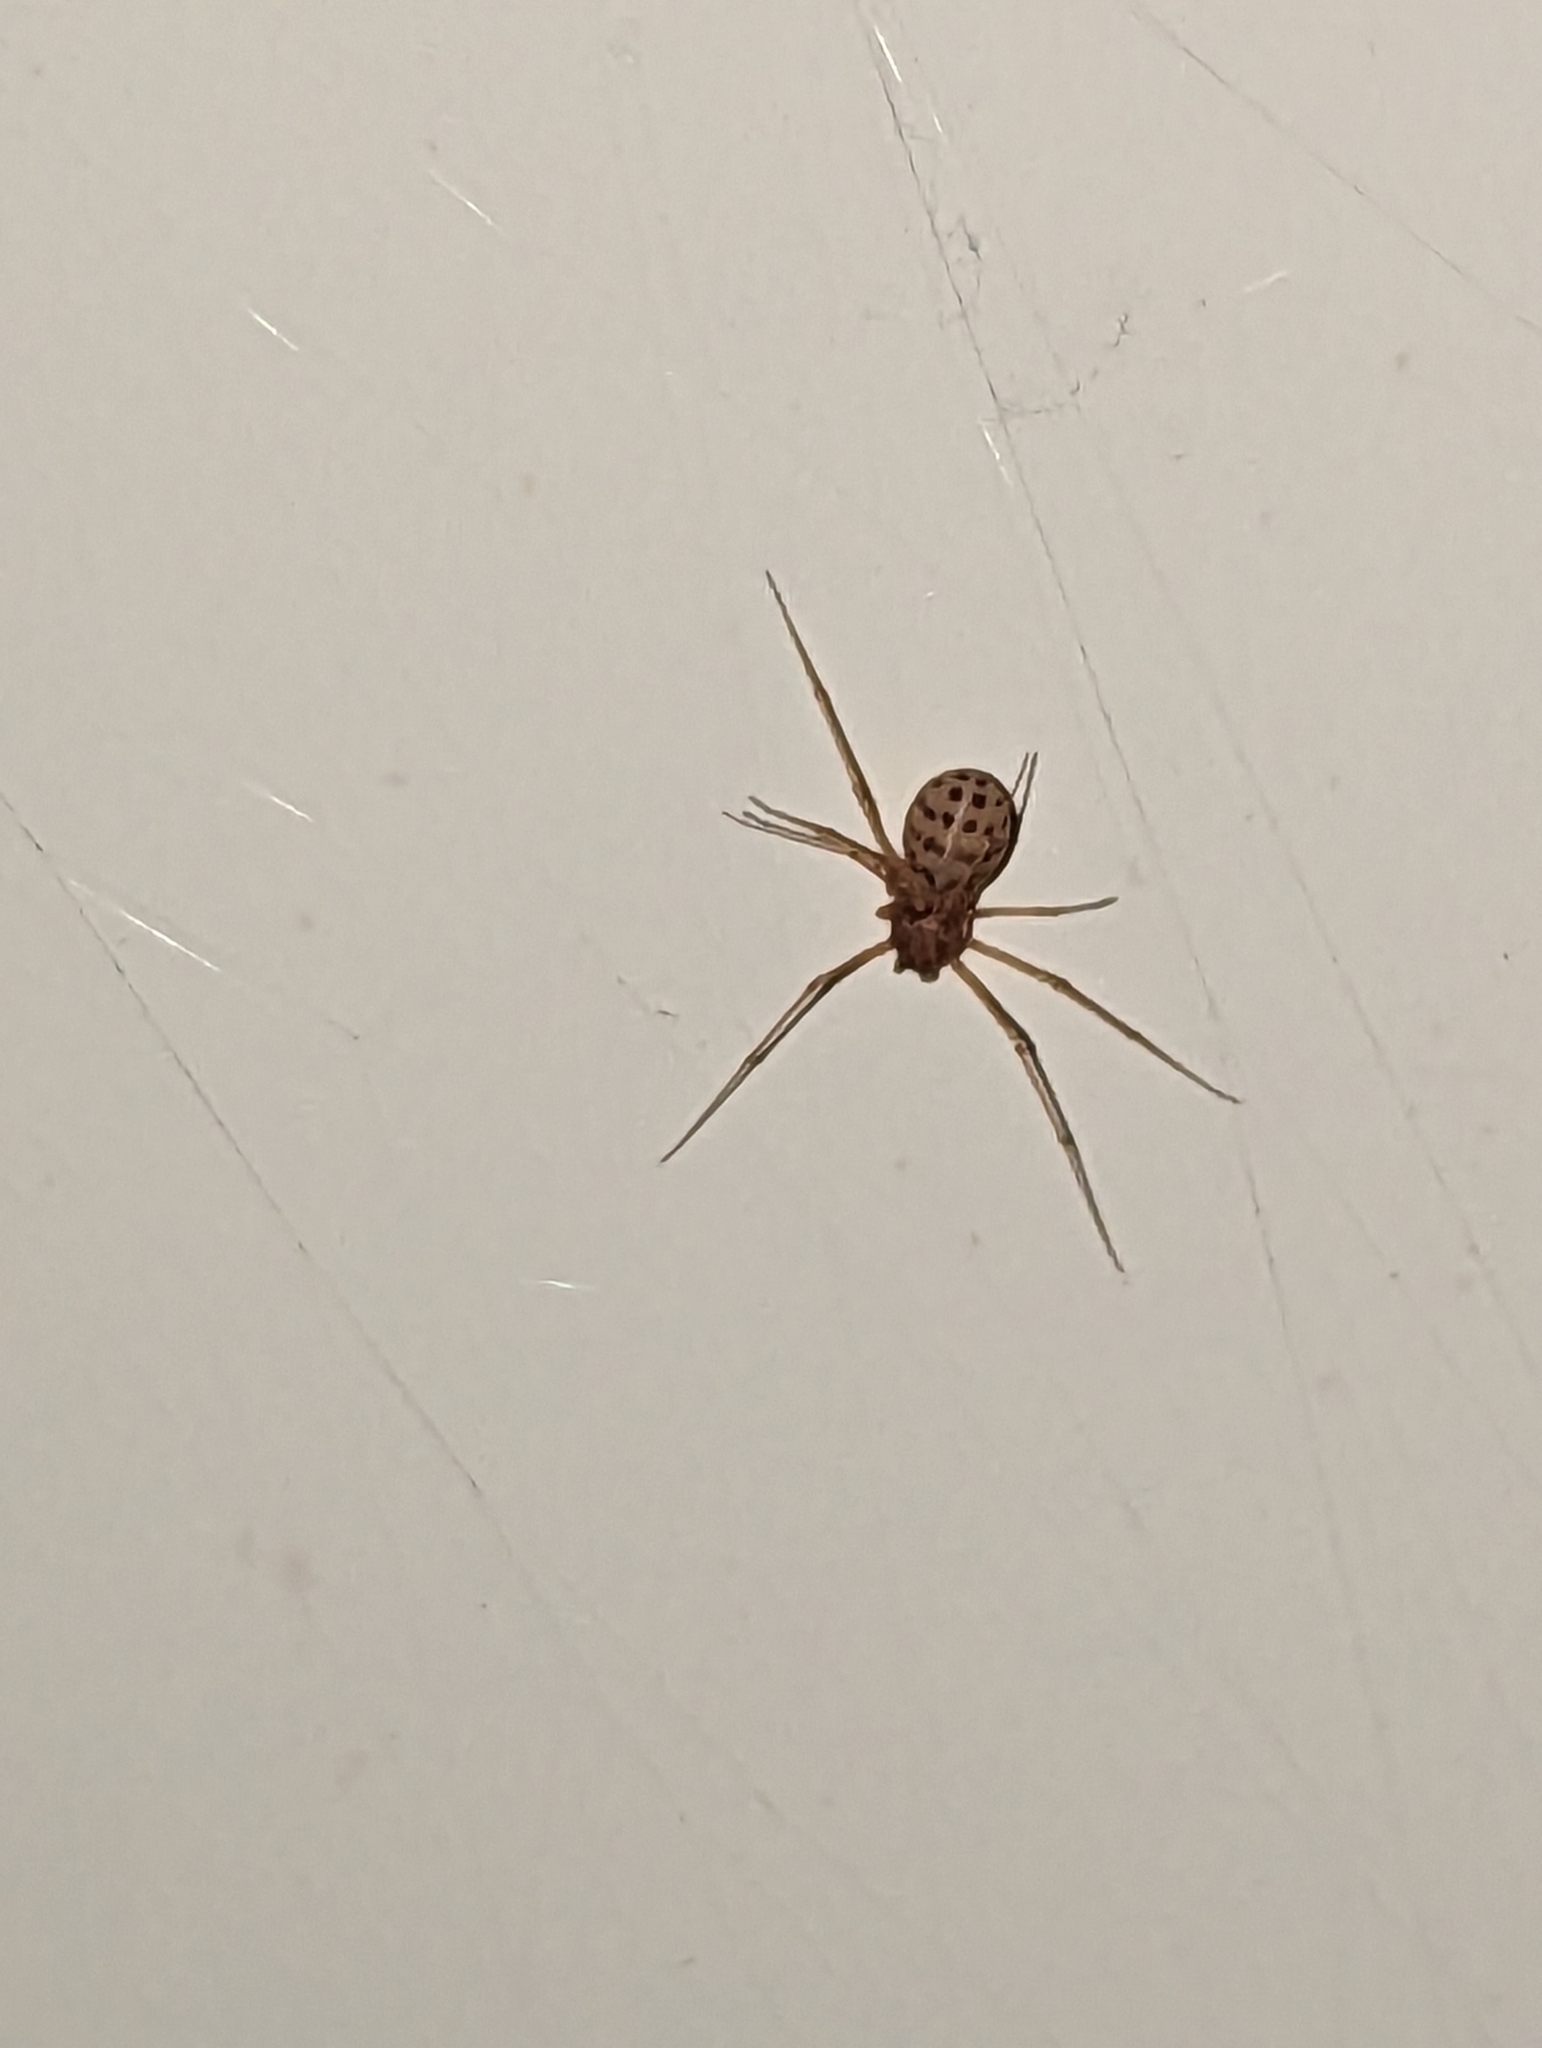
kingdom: Animalia
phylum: Arthropoda
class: Arachnida
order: Araneae
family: Scytodidae
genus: Scytodes
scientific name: Scytodes univittata
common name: Spitting spider
